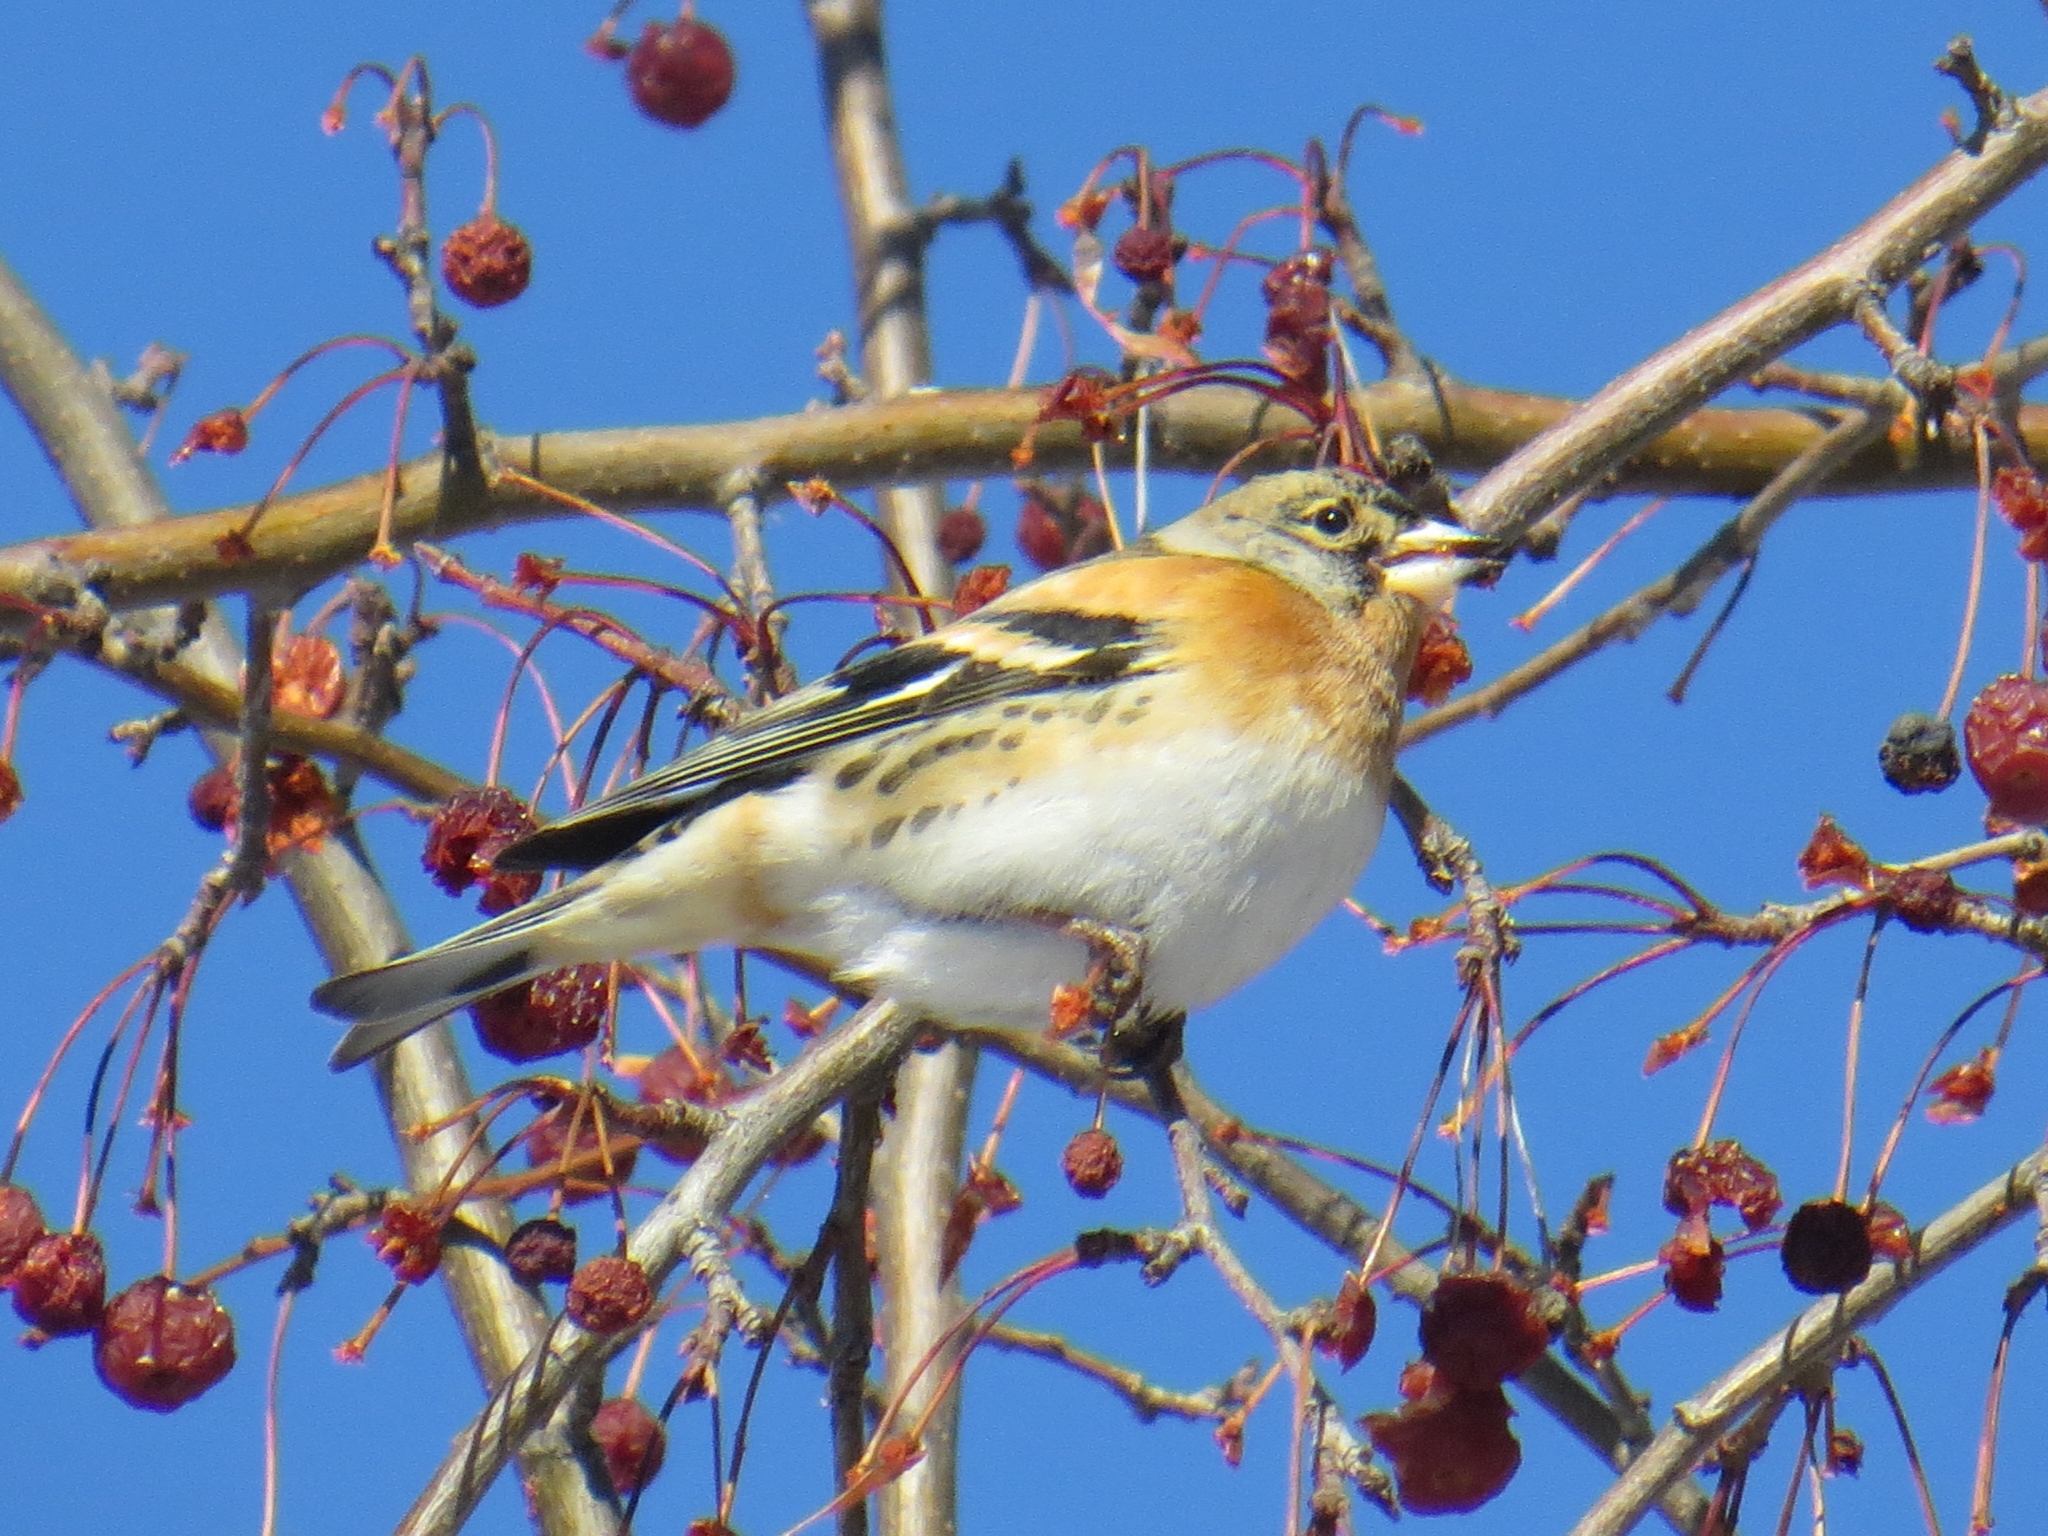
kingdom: Animalia
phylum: Chordata
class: Aves
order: Passeriformes
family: Fringillidae
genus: Fringilla
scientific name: Fringilla montifringilla
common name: Brambling
